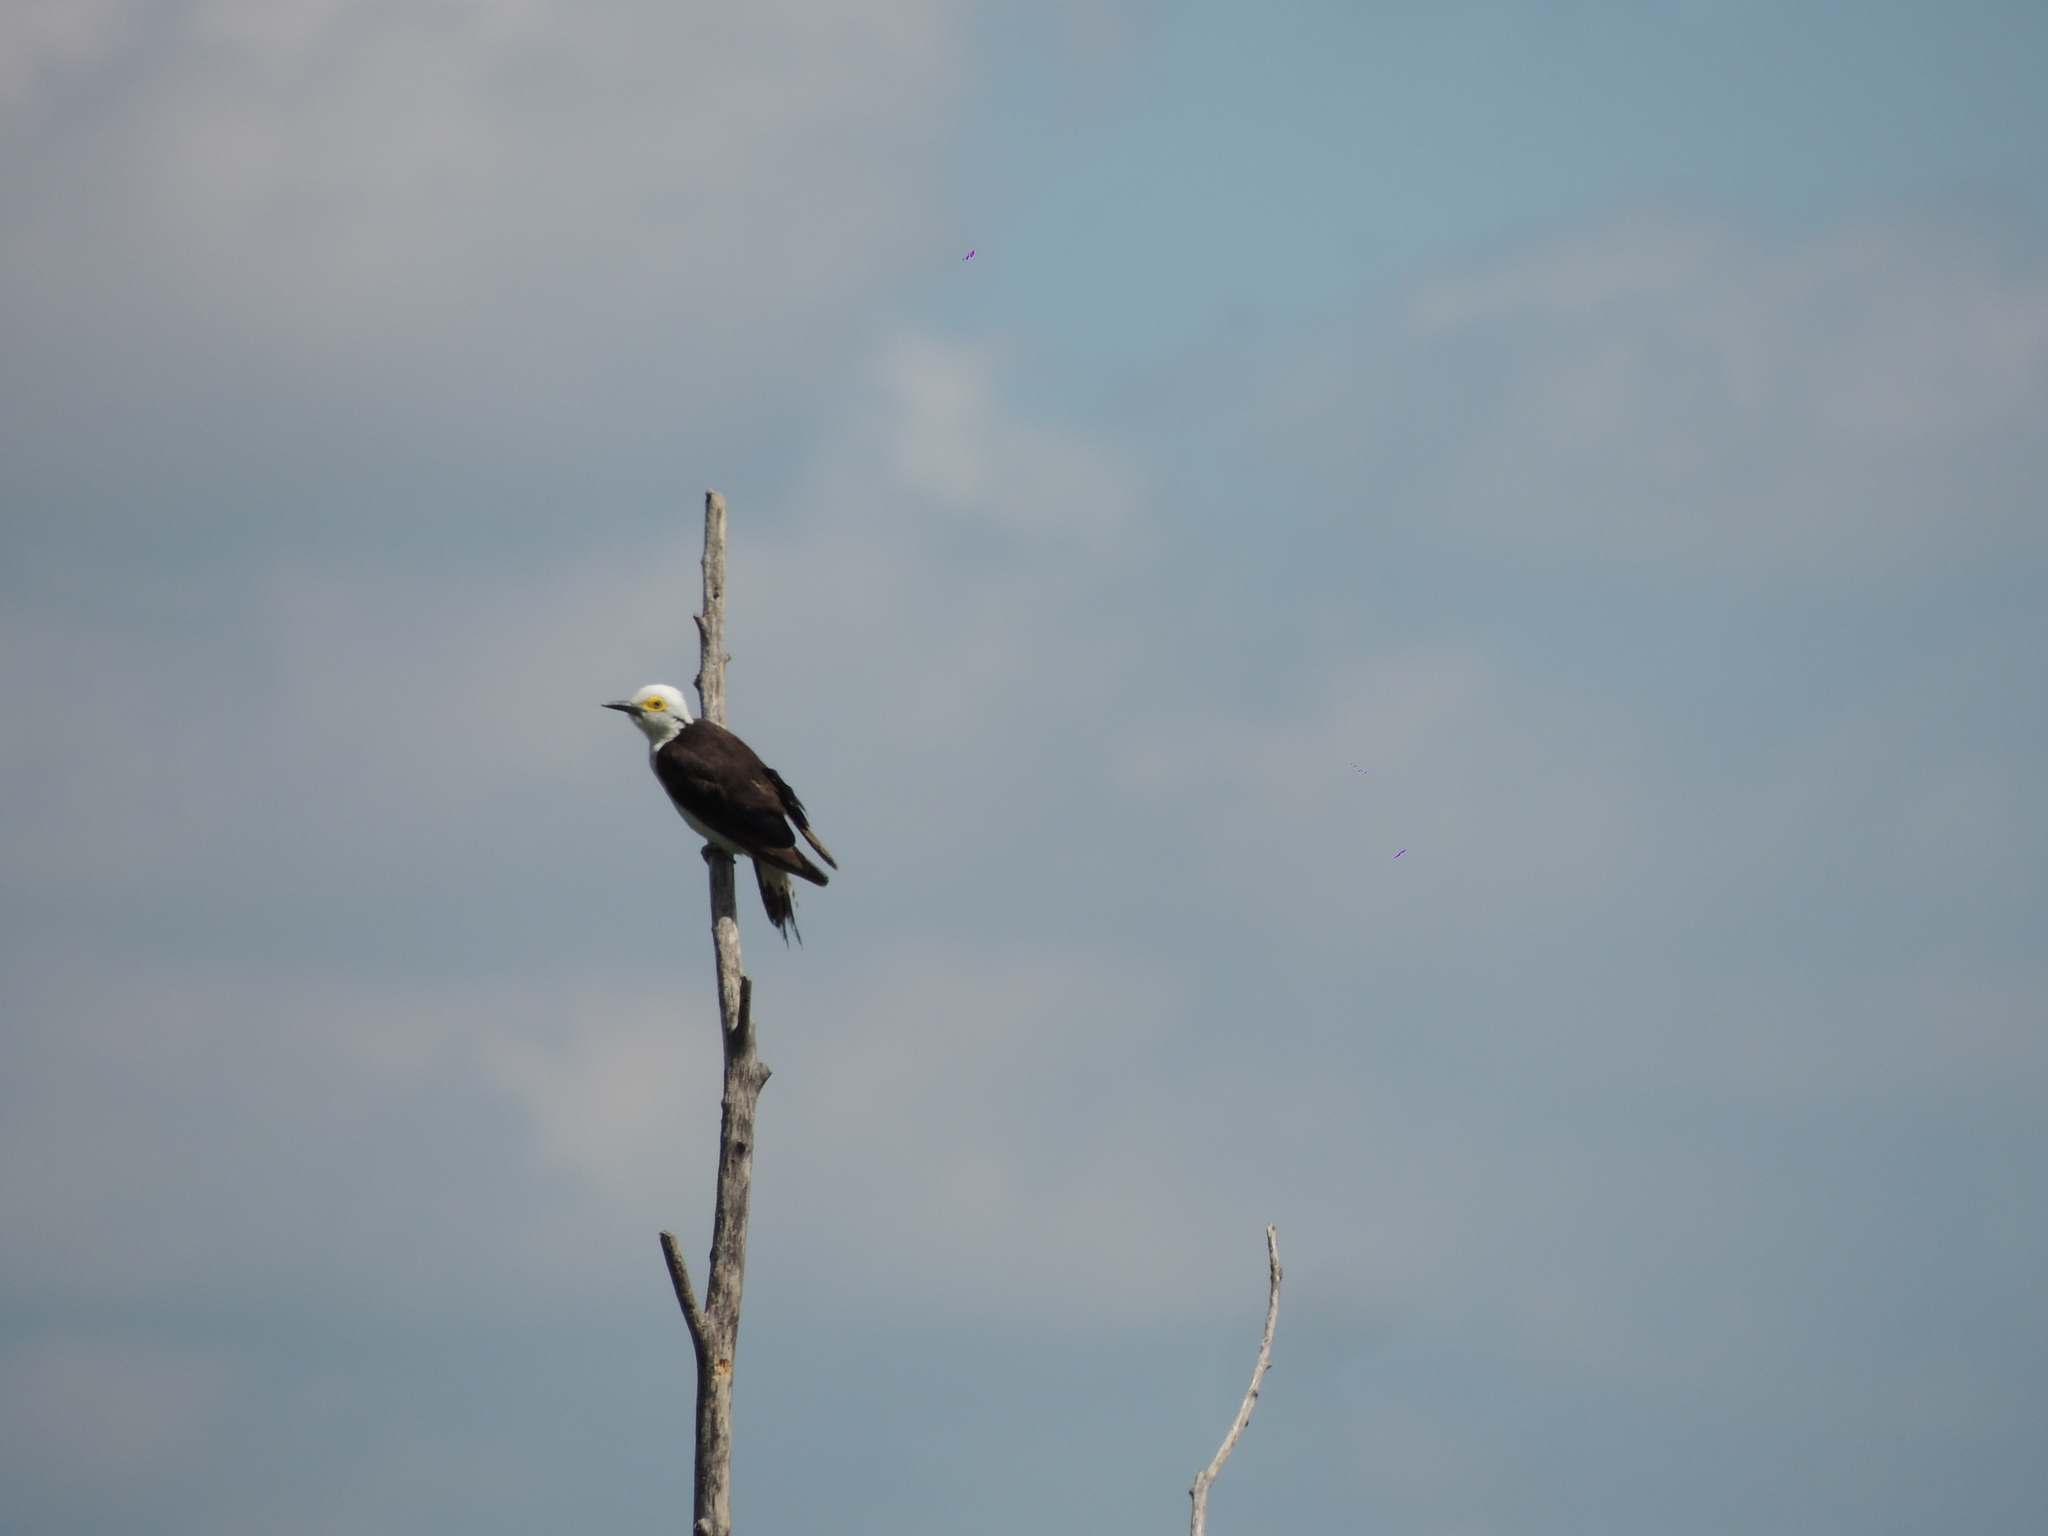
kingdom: Animalia
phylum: Chordata
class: Aves
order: Piciformes
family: Picidae
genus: Melanerpes
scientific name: Melanerpes candidus
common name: White woodpecker
